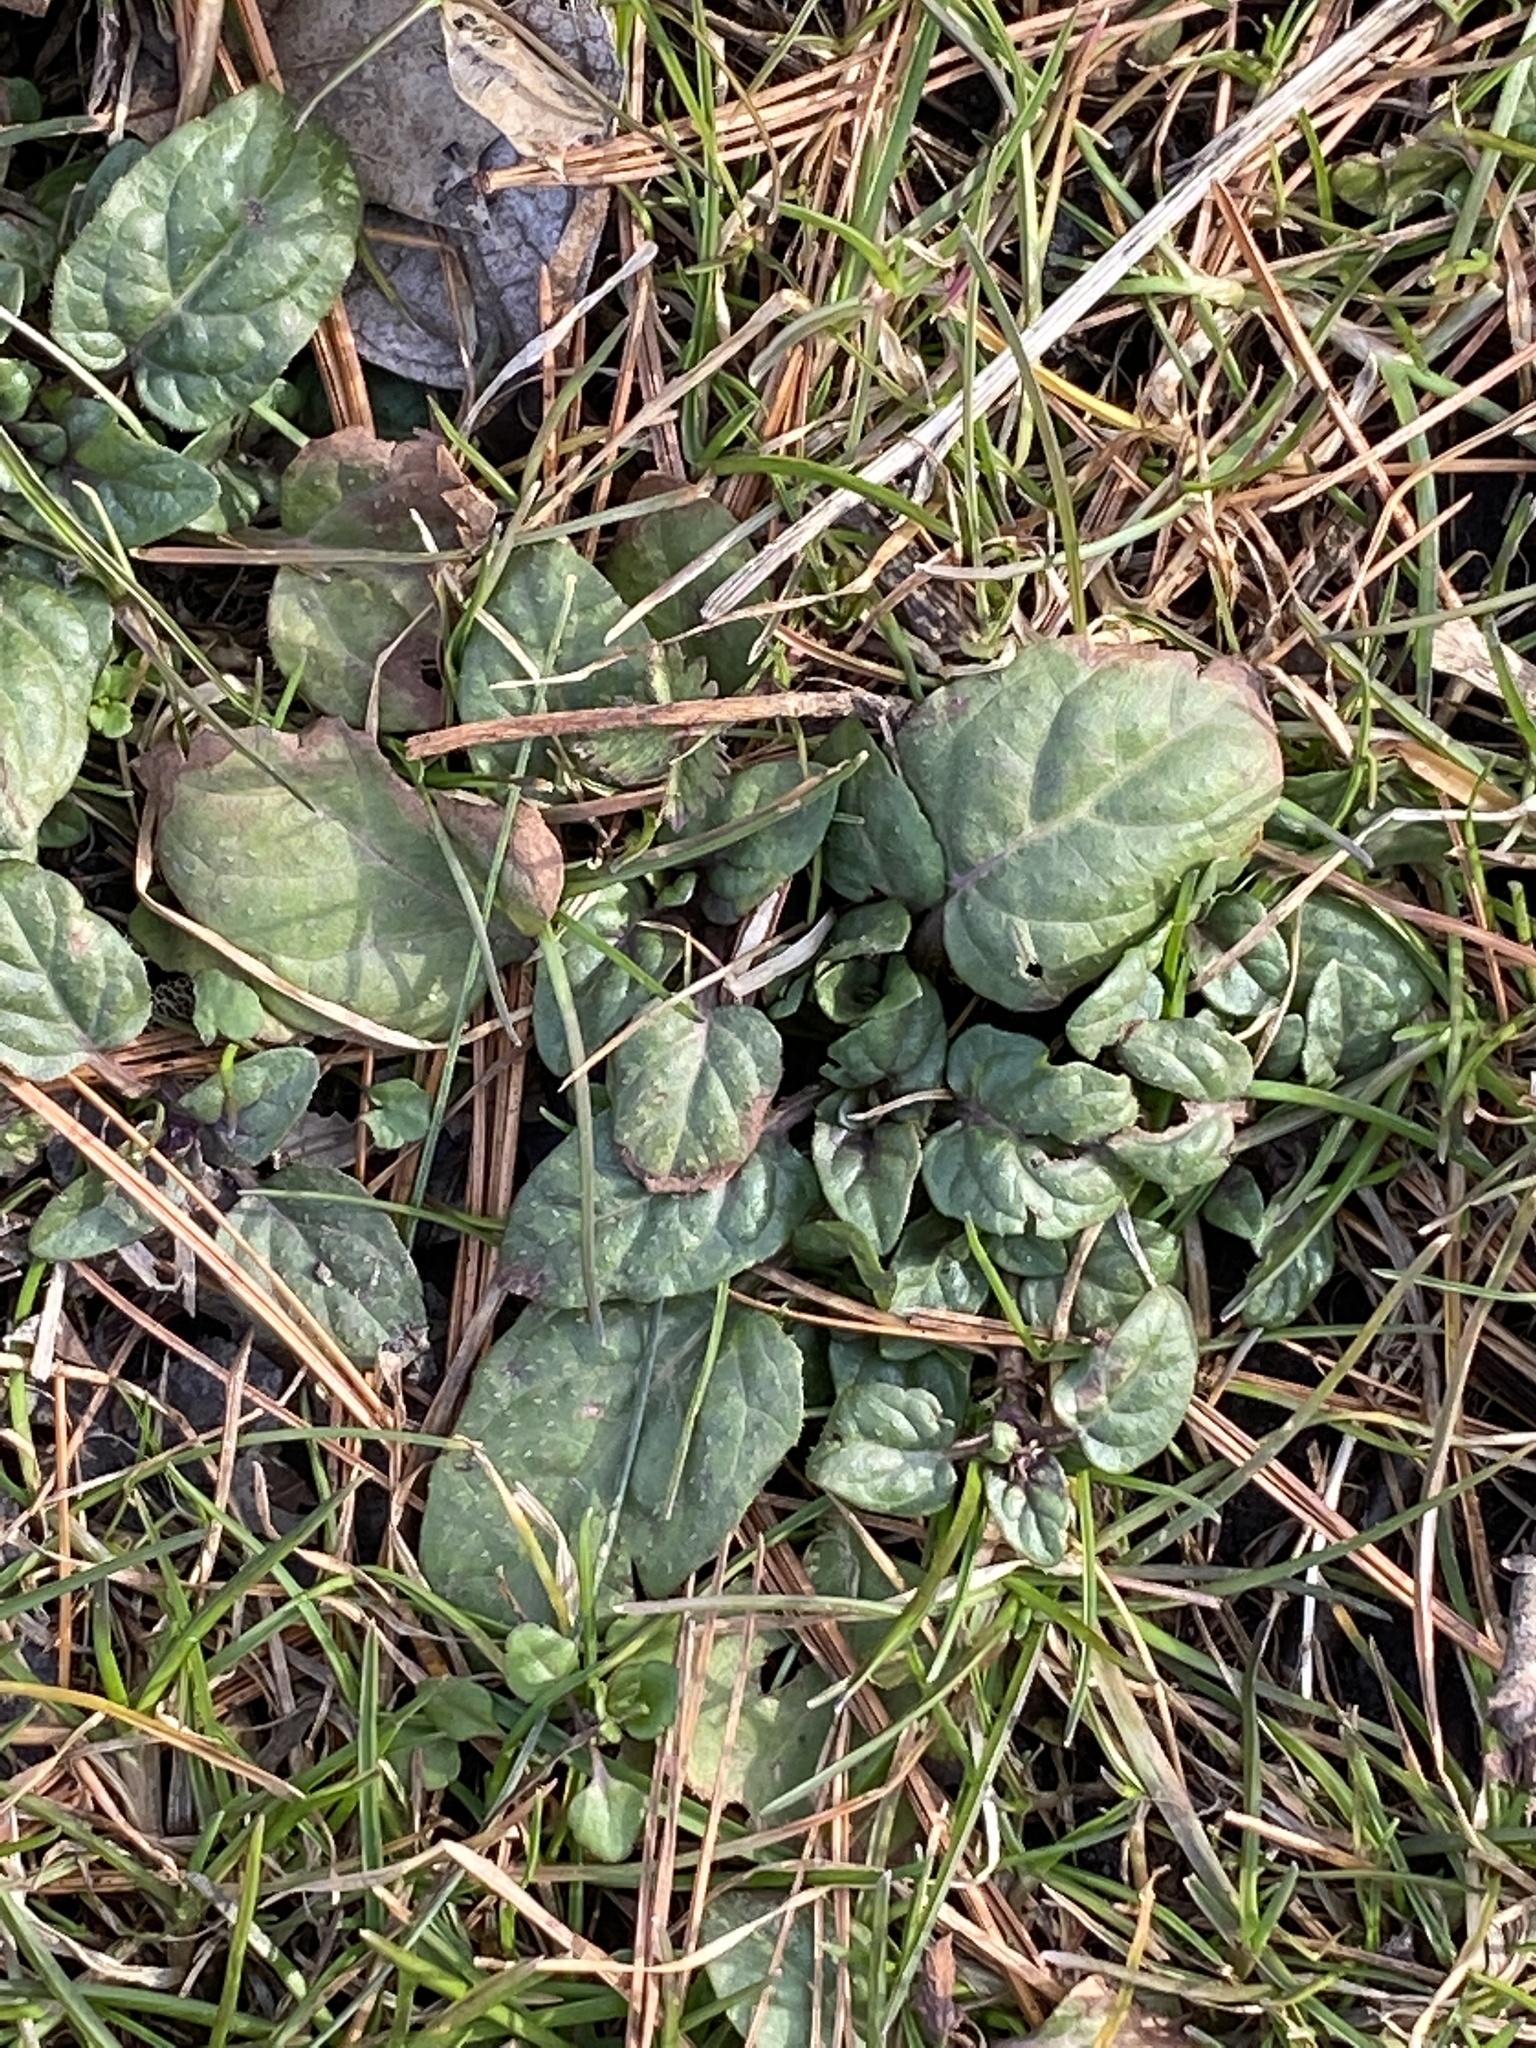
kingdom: Plantae
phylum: Tracheophyta
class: Magnoliopsida
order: Lamiales
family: Lamiaceae
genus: Prunella
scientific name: Prunella vulgaris
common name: Heal-all
